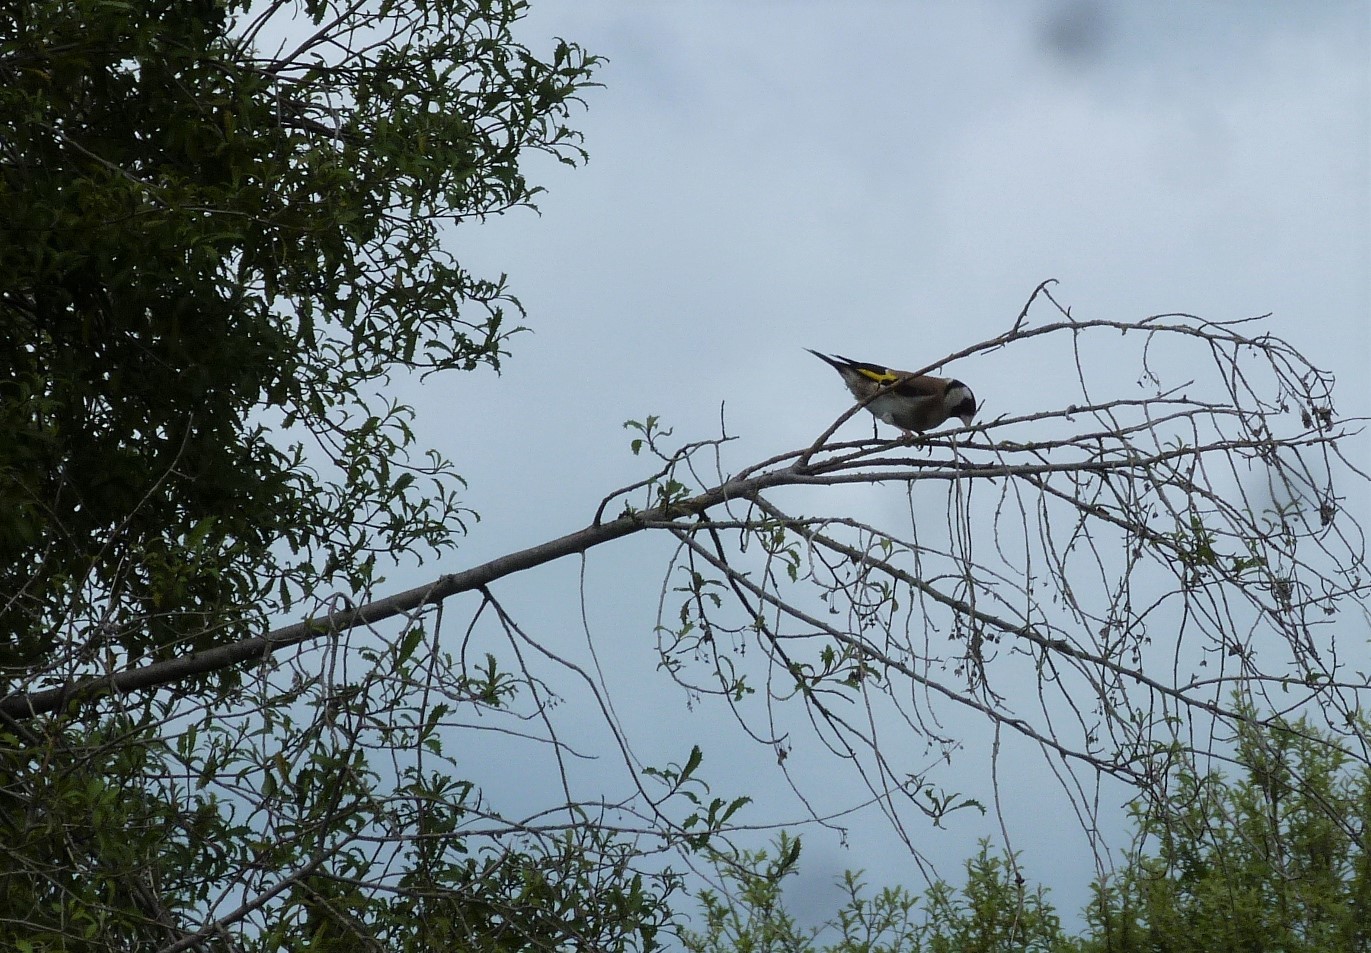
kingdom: Animalia
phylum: Chordata
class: Aves
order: Passeriformes
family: Fringillidae
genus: Carduelis
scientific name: Carduelis carduelis
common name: European goldfinch
